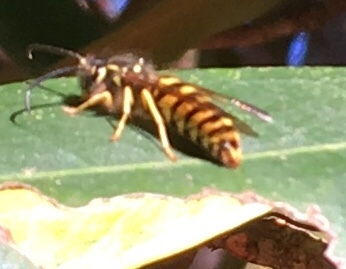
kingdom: Animalia
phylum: Arthropoda
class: Insecta
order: Hymenoptera
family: Vespidae
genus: Vespula
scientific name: Vespula
